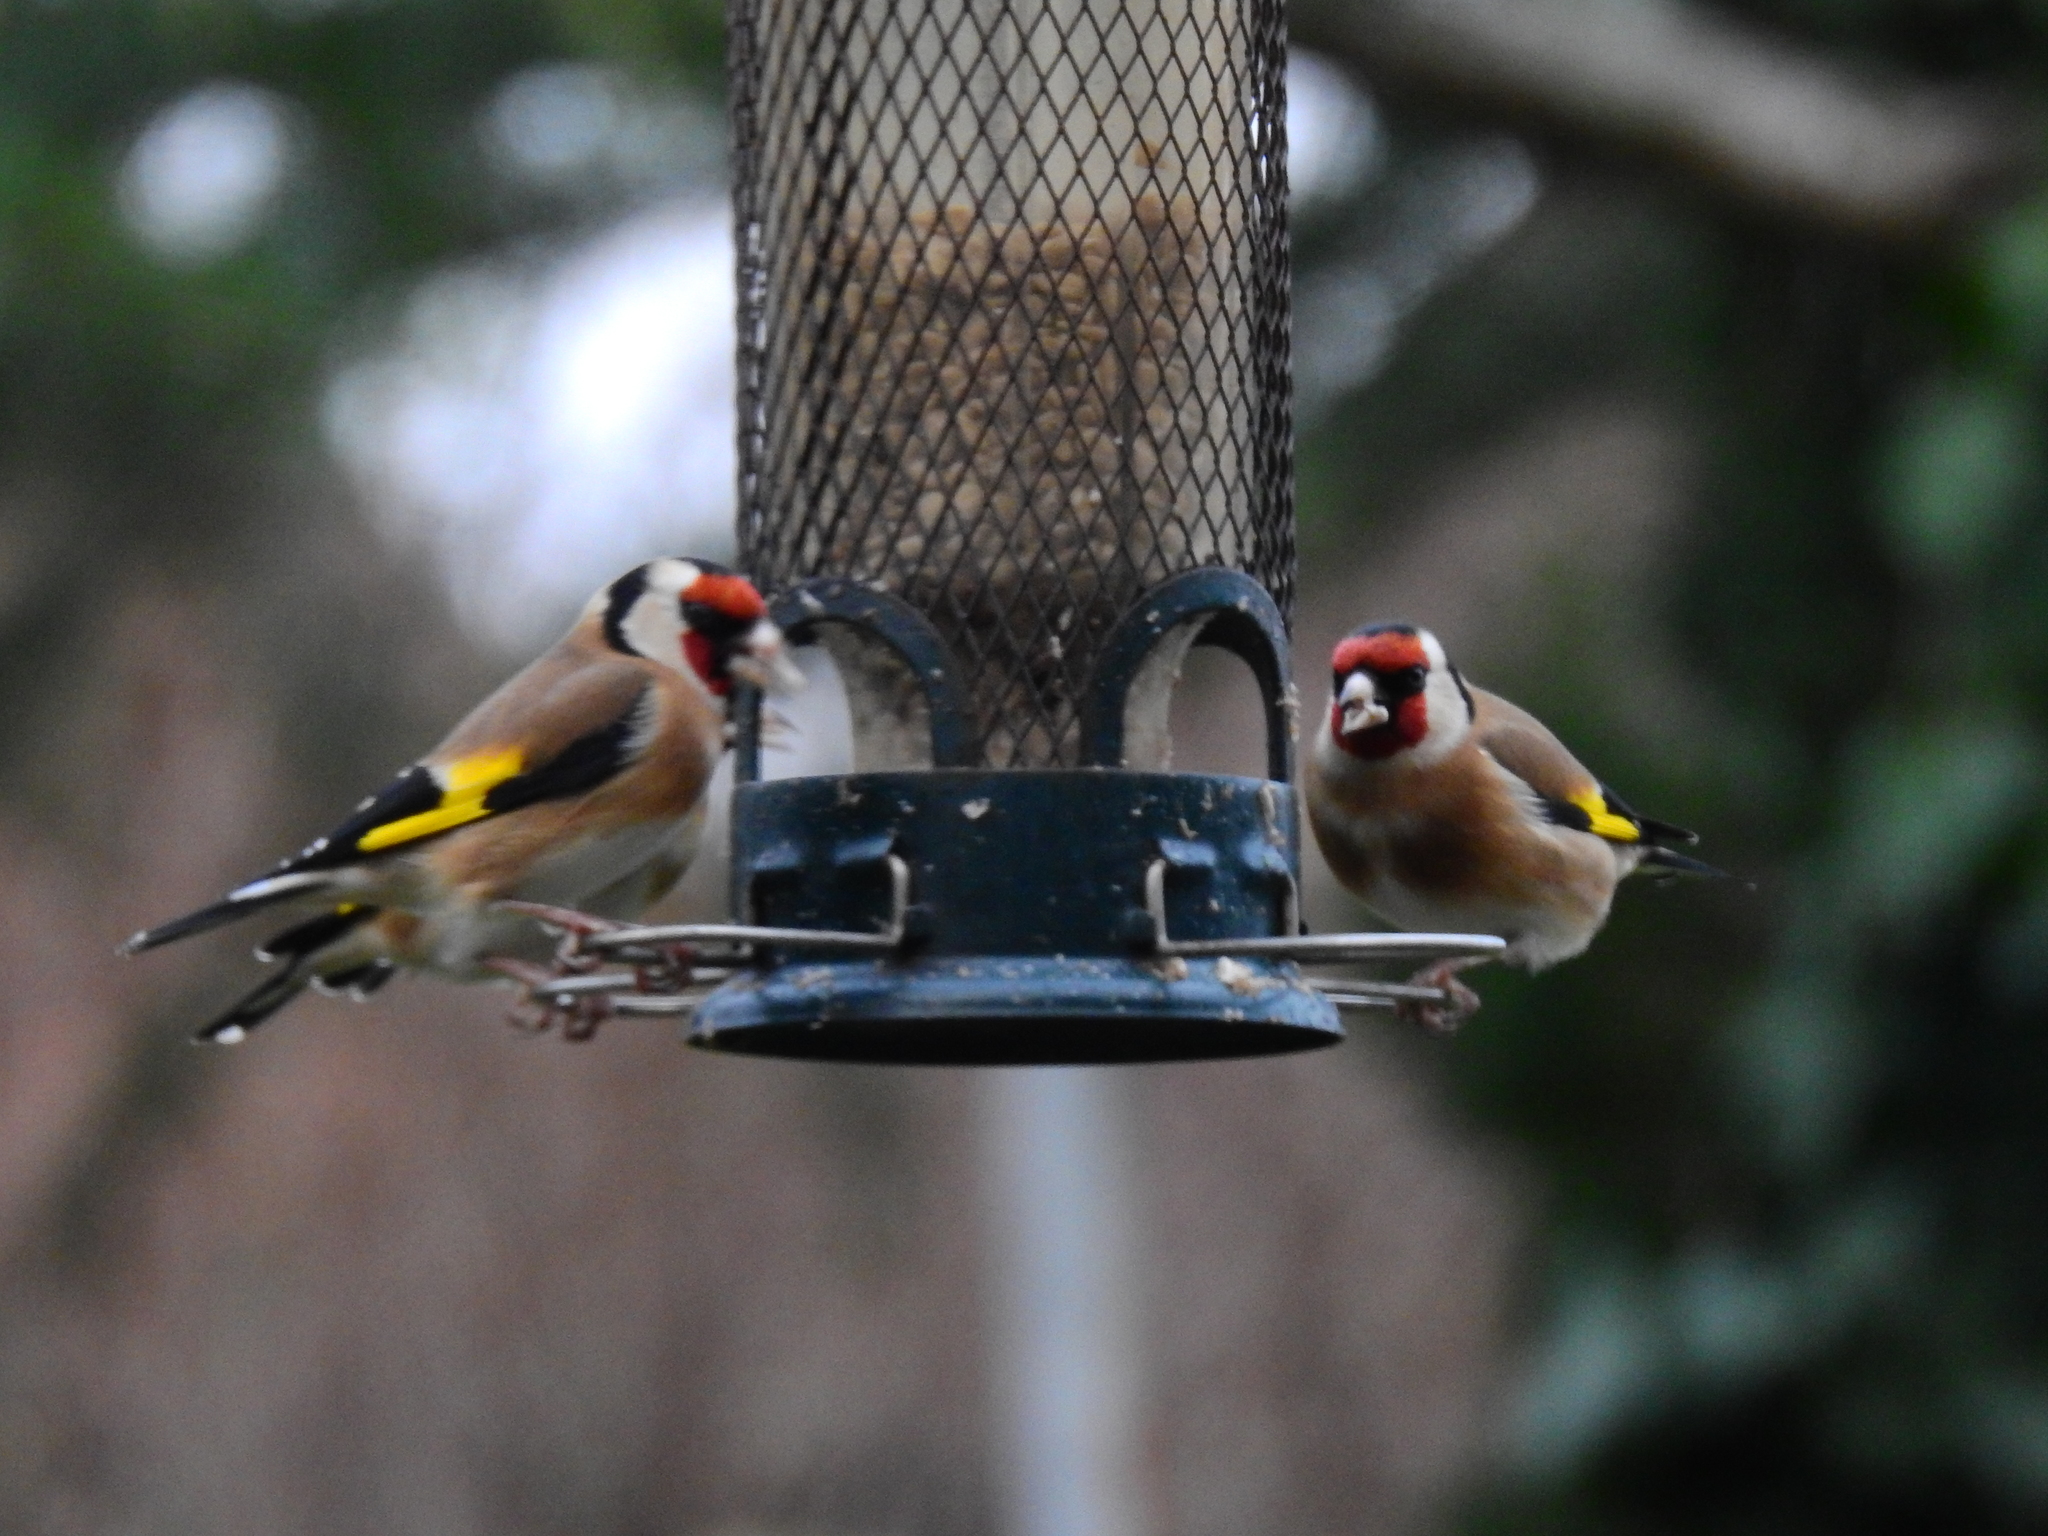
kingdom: Animalia
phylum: Chordata
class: Aves
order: Passeriformes
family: Fringillidae
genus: Carduelis
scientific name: Carduelis carduelis
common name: European goldfinch
